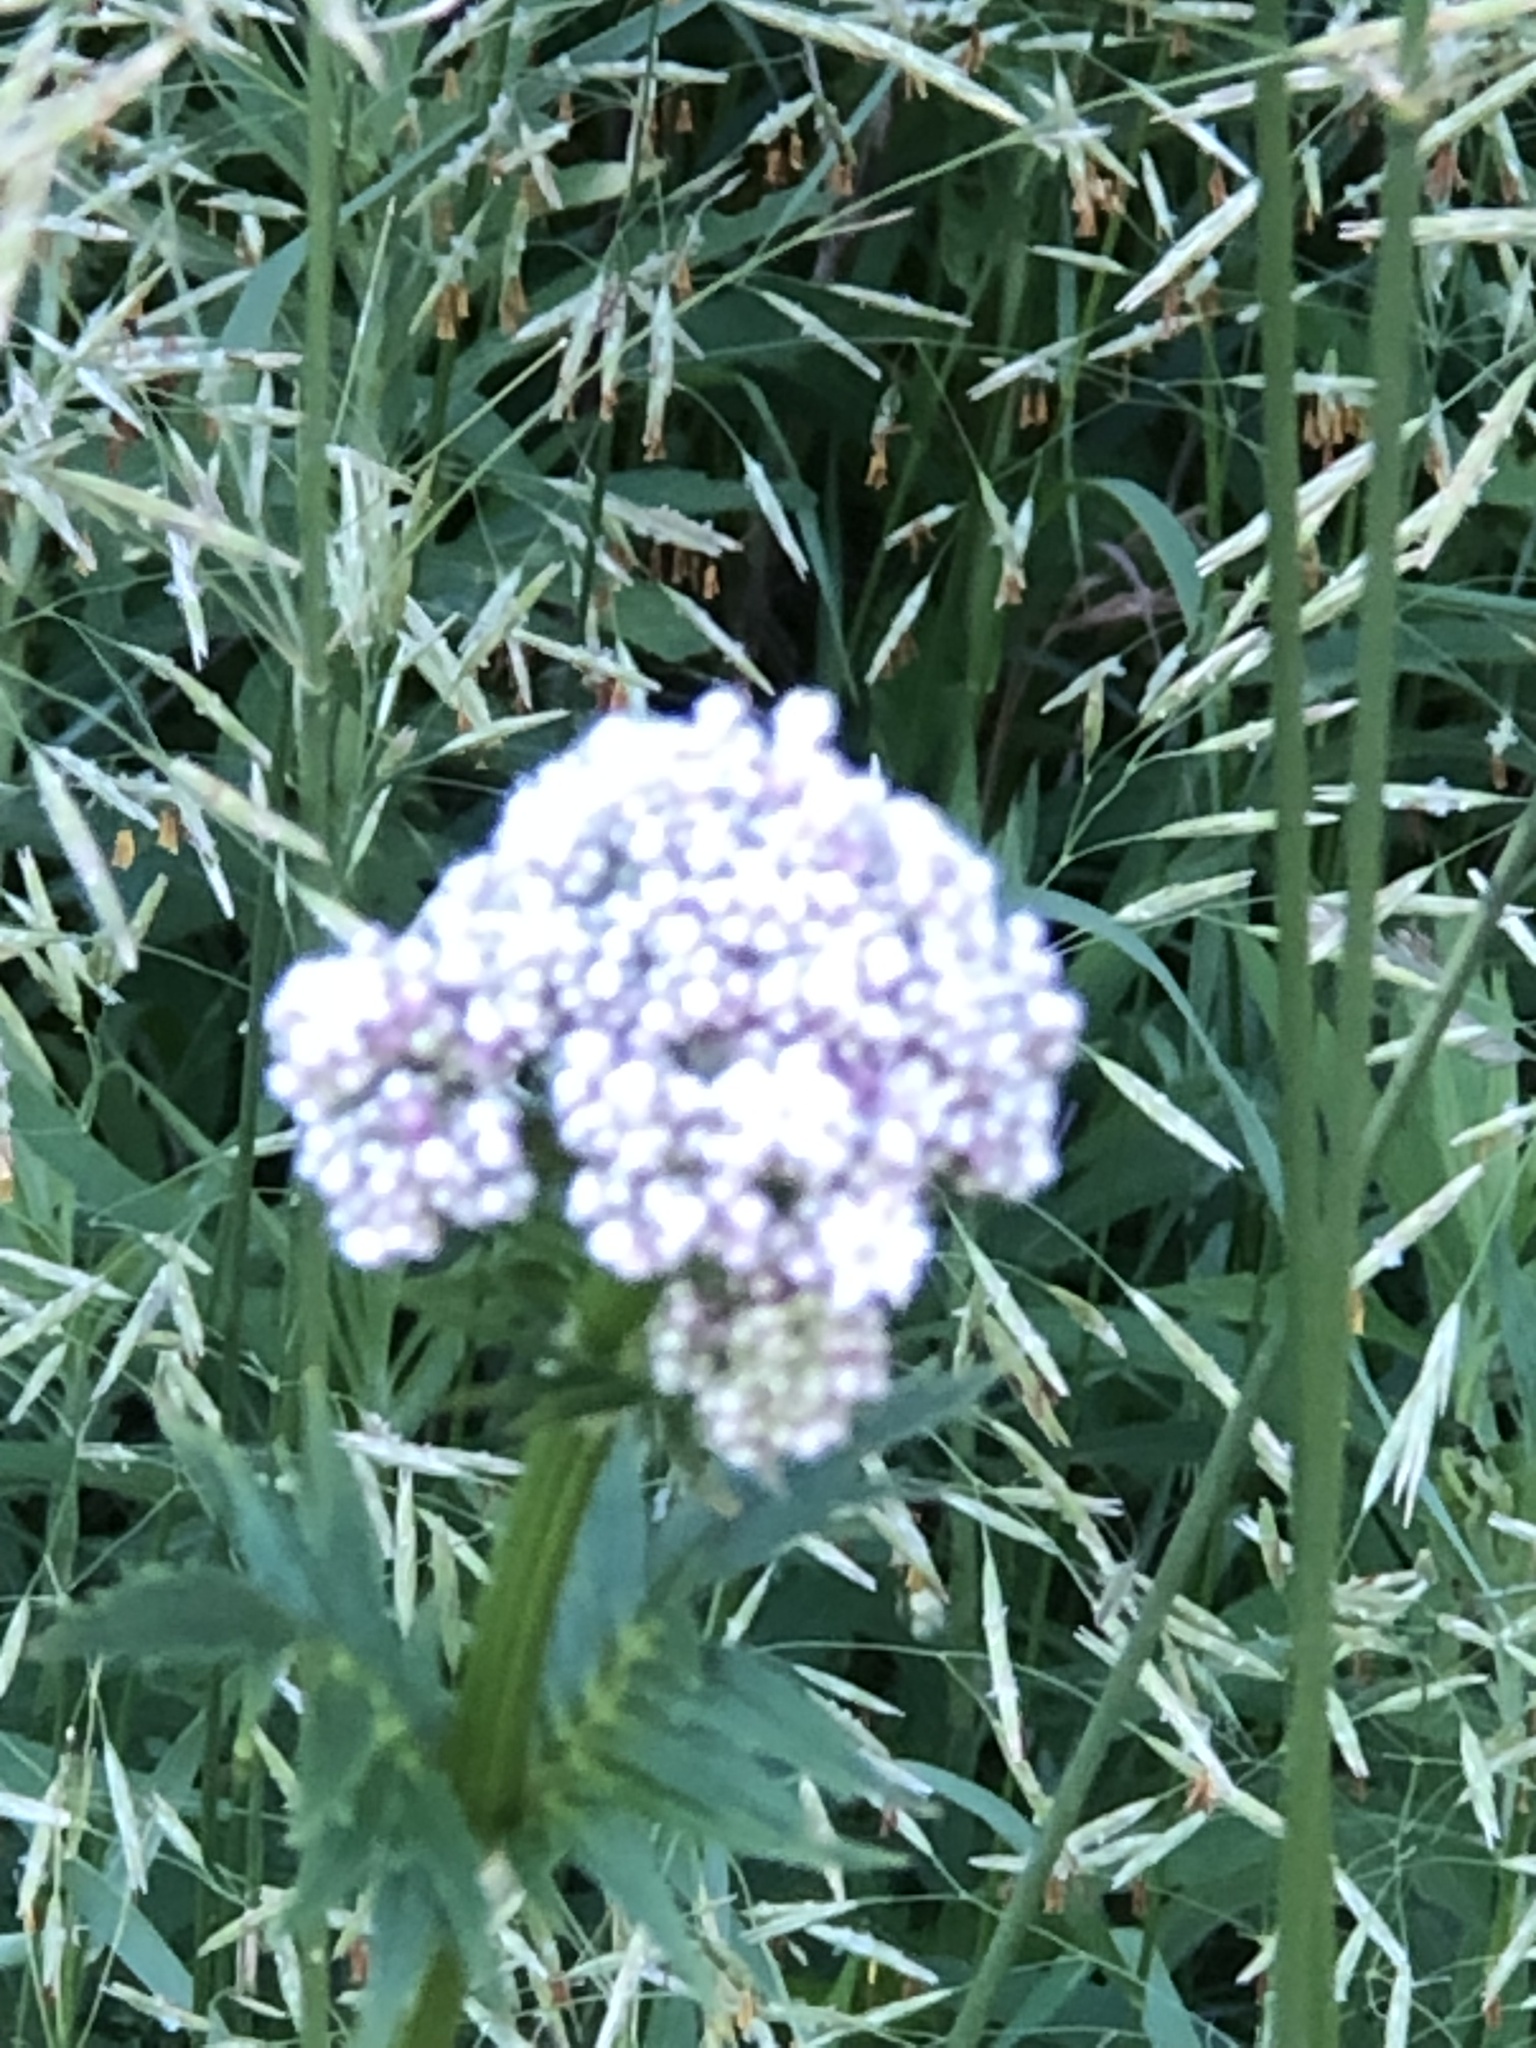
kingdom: Plantae
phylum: Tracheophyta
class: Magnoliopsida
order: Dipsacales
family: Caprifoliaceae
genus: Valeriana
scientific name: Valeriana officinalis
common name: Common valerian
